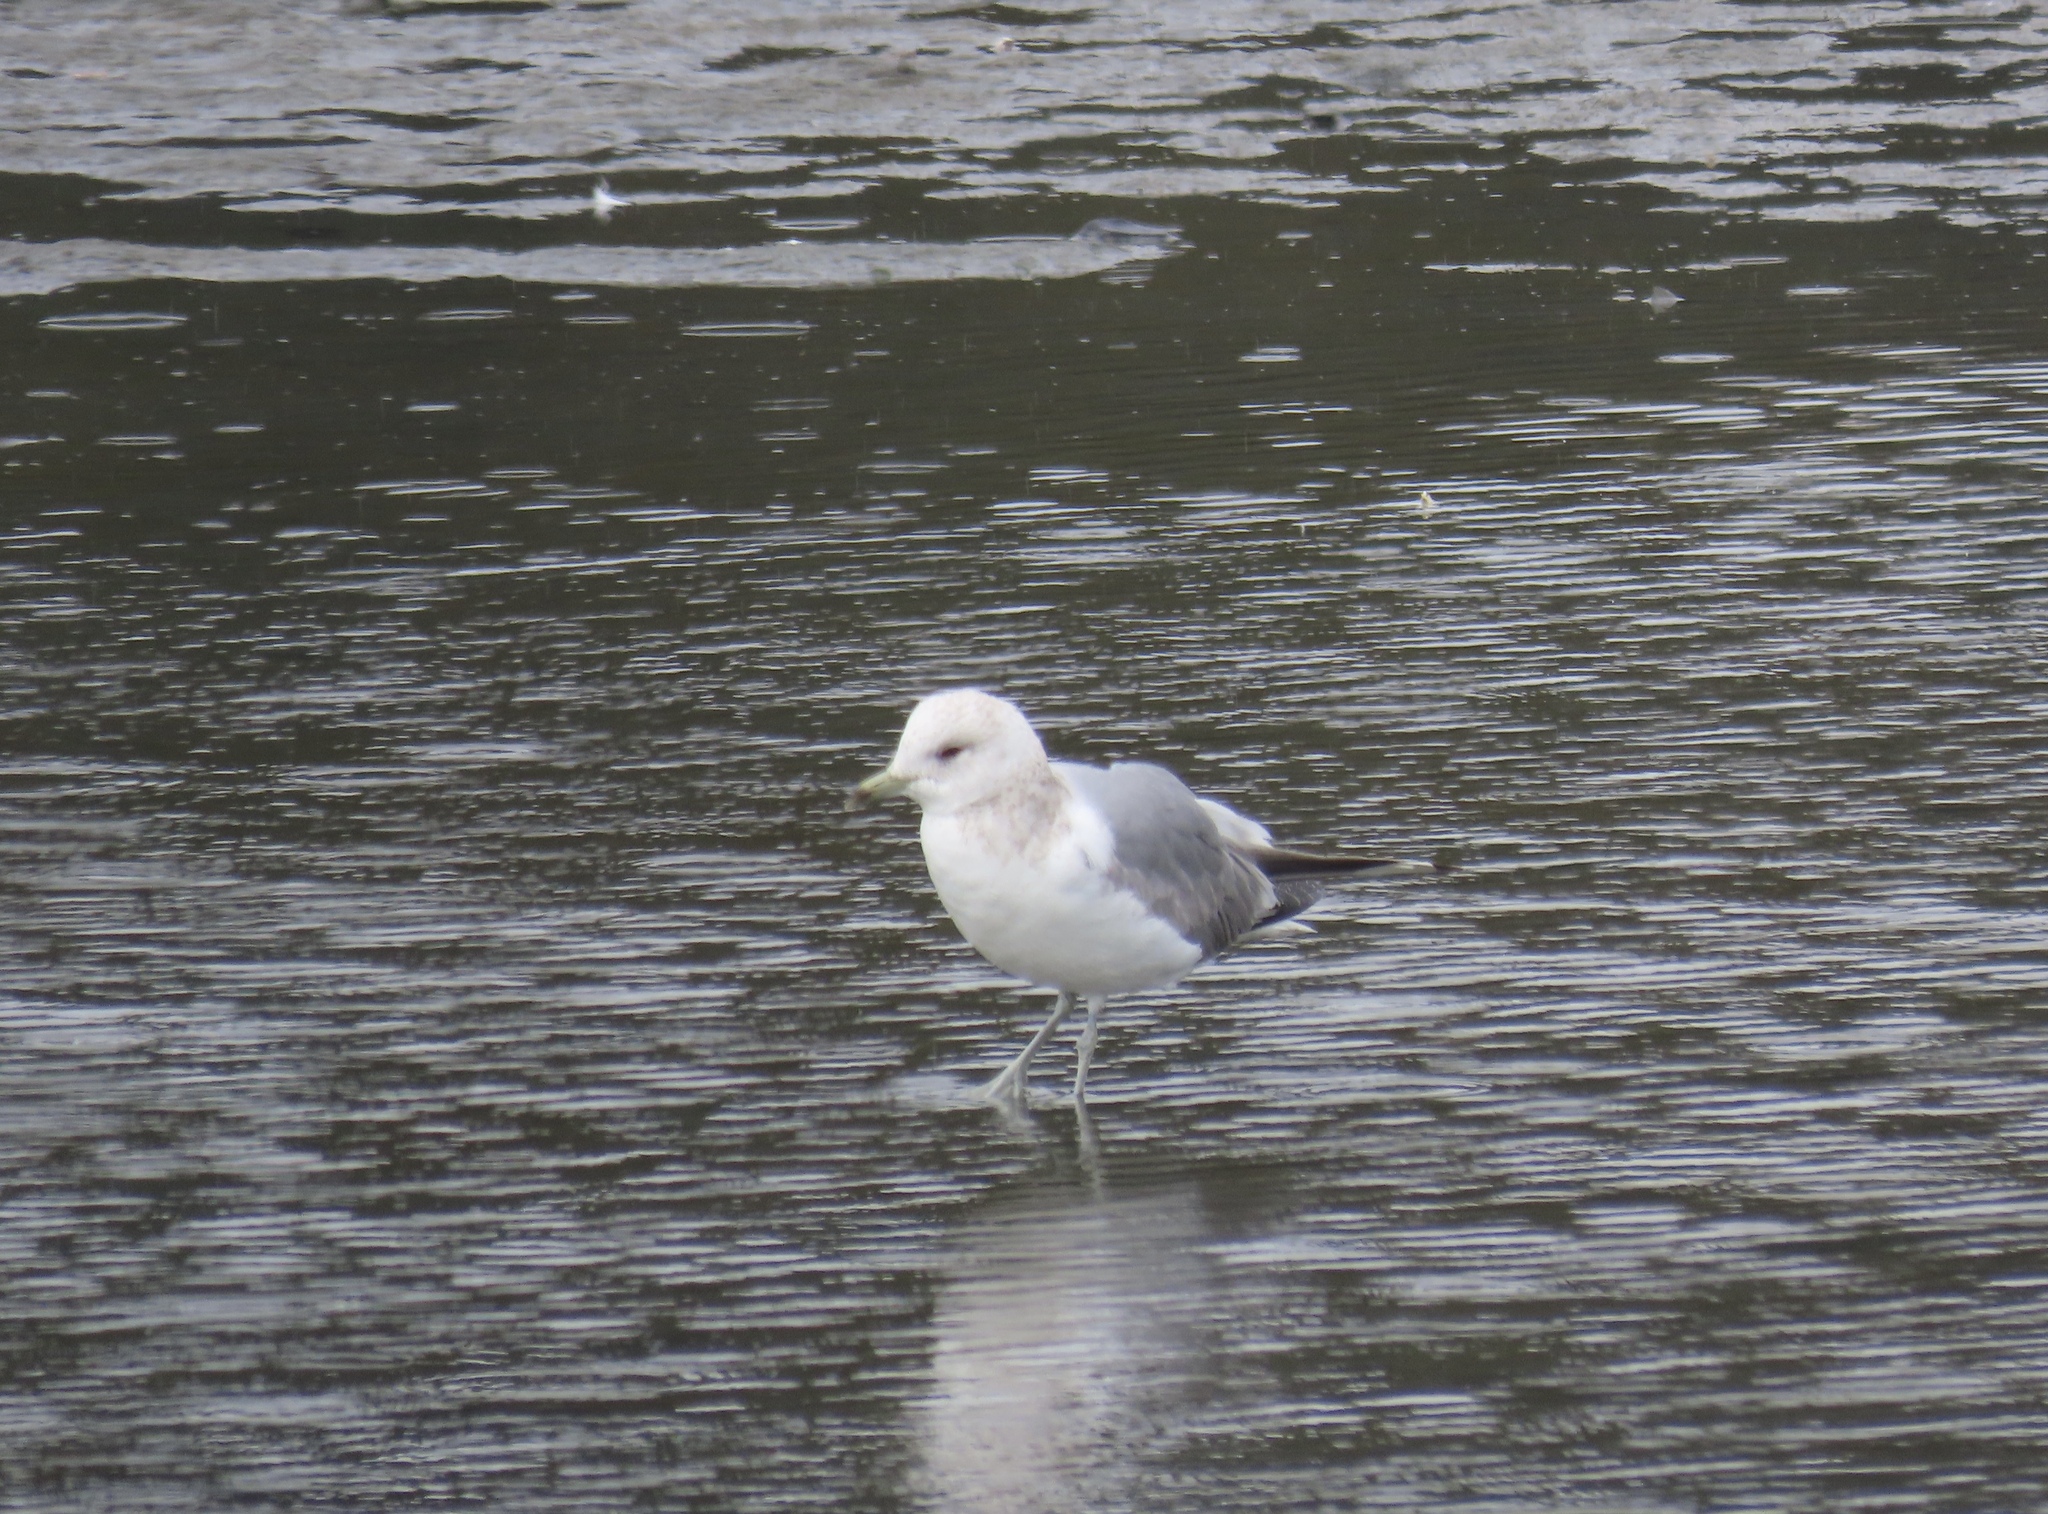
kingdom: Animalia
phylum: Chordata
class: Aves
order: Charadriiformes
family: Laridae
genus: Larus
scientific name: Larus brachyrhynchus
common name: Short-billed gull
